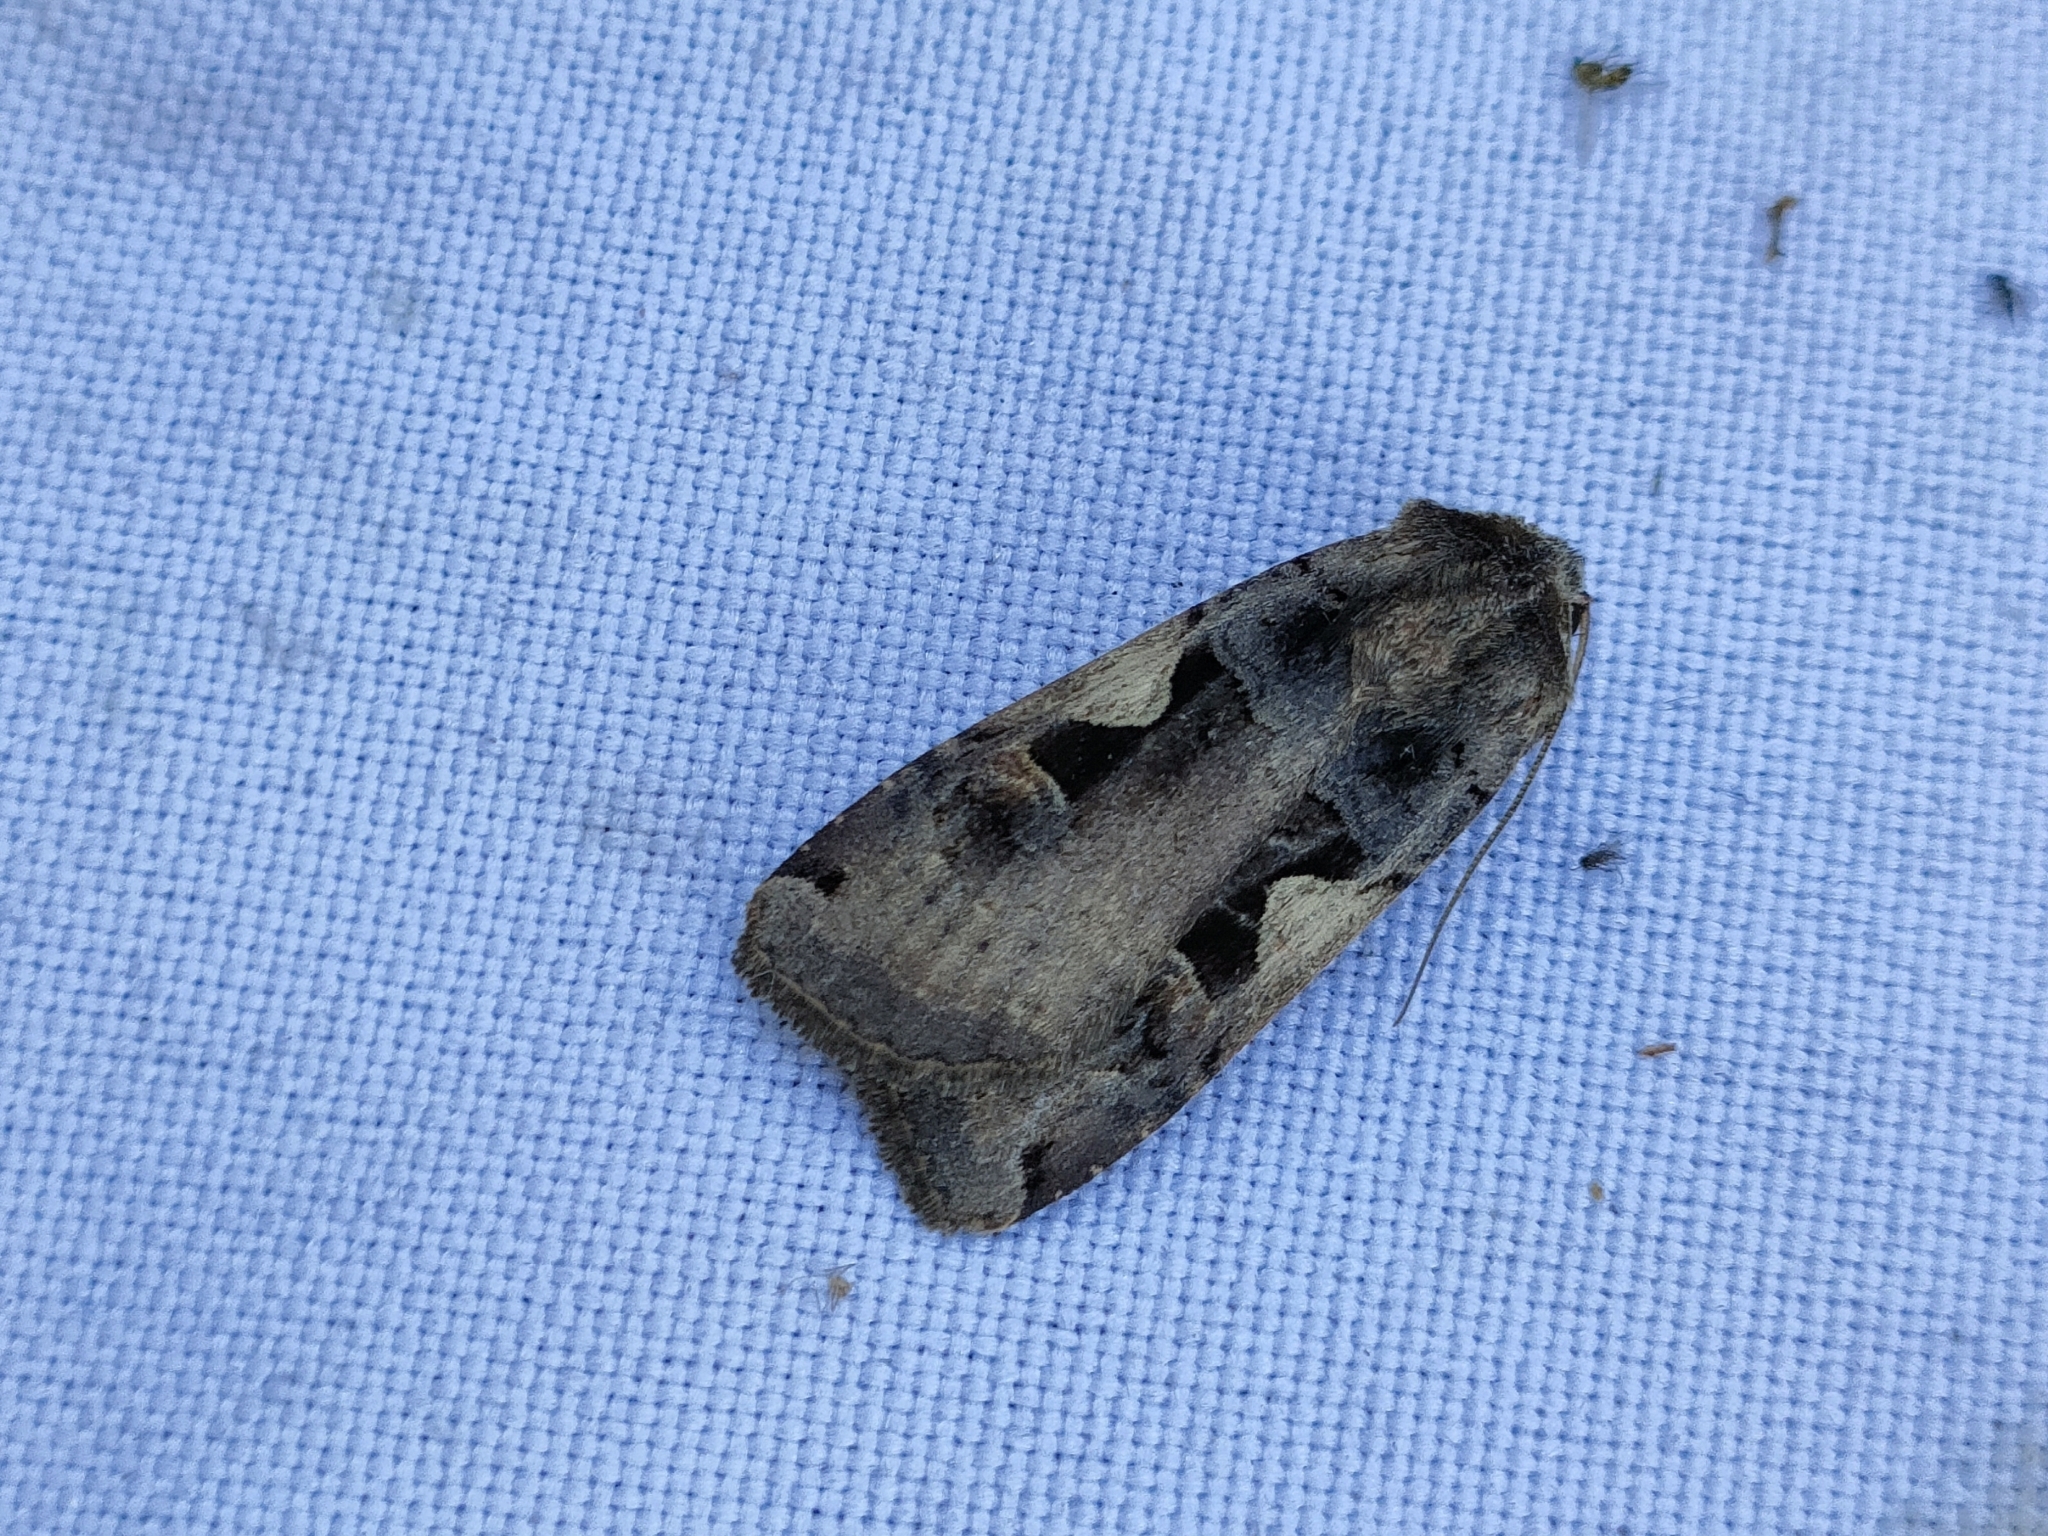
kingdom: Animalia
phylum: Arthropoda
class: Insecta
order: Lepidoptera
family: Noctuidae
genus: Xestia
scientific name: Xestia c-nigrum
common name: Setaceous hebrew character
